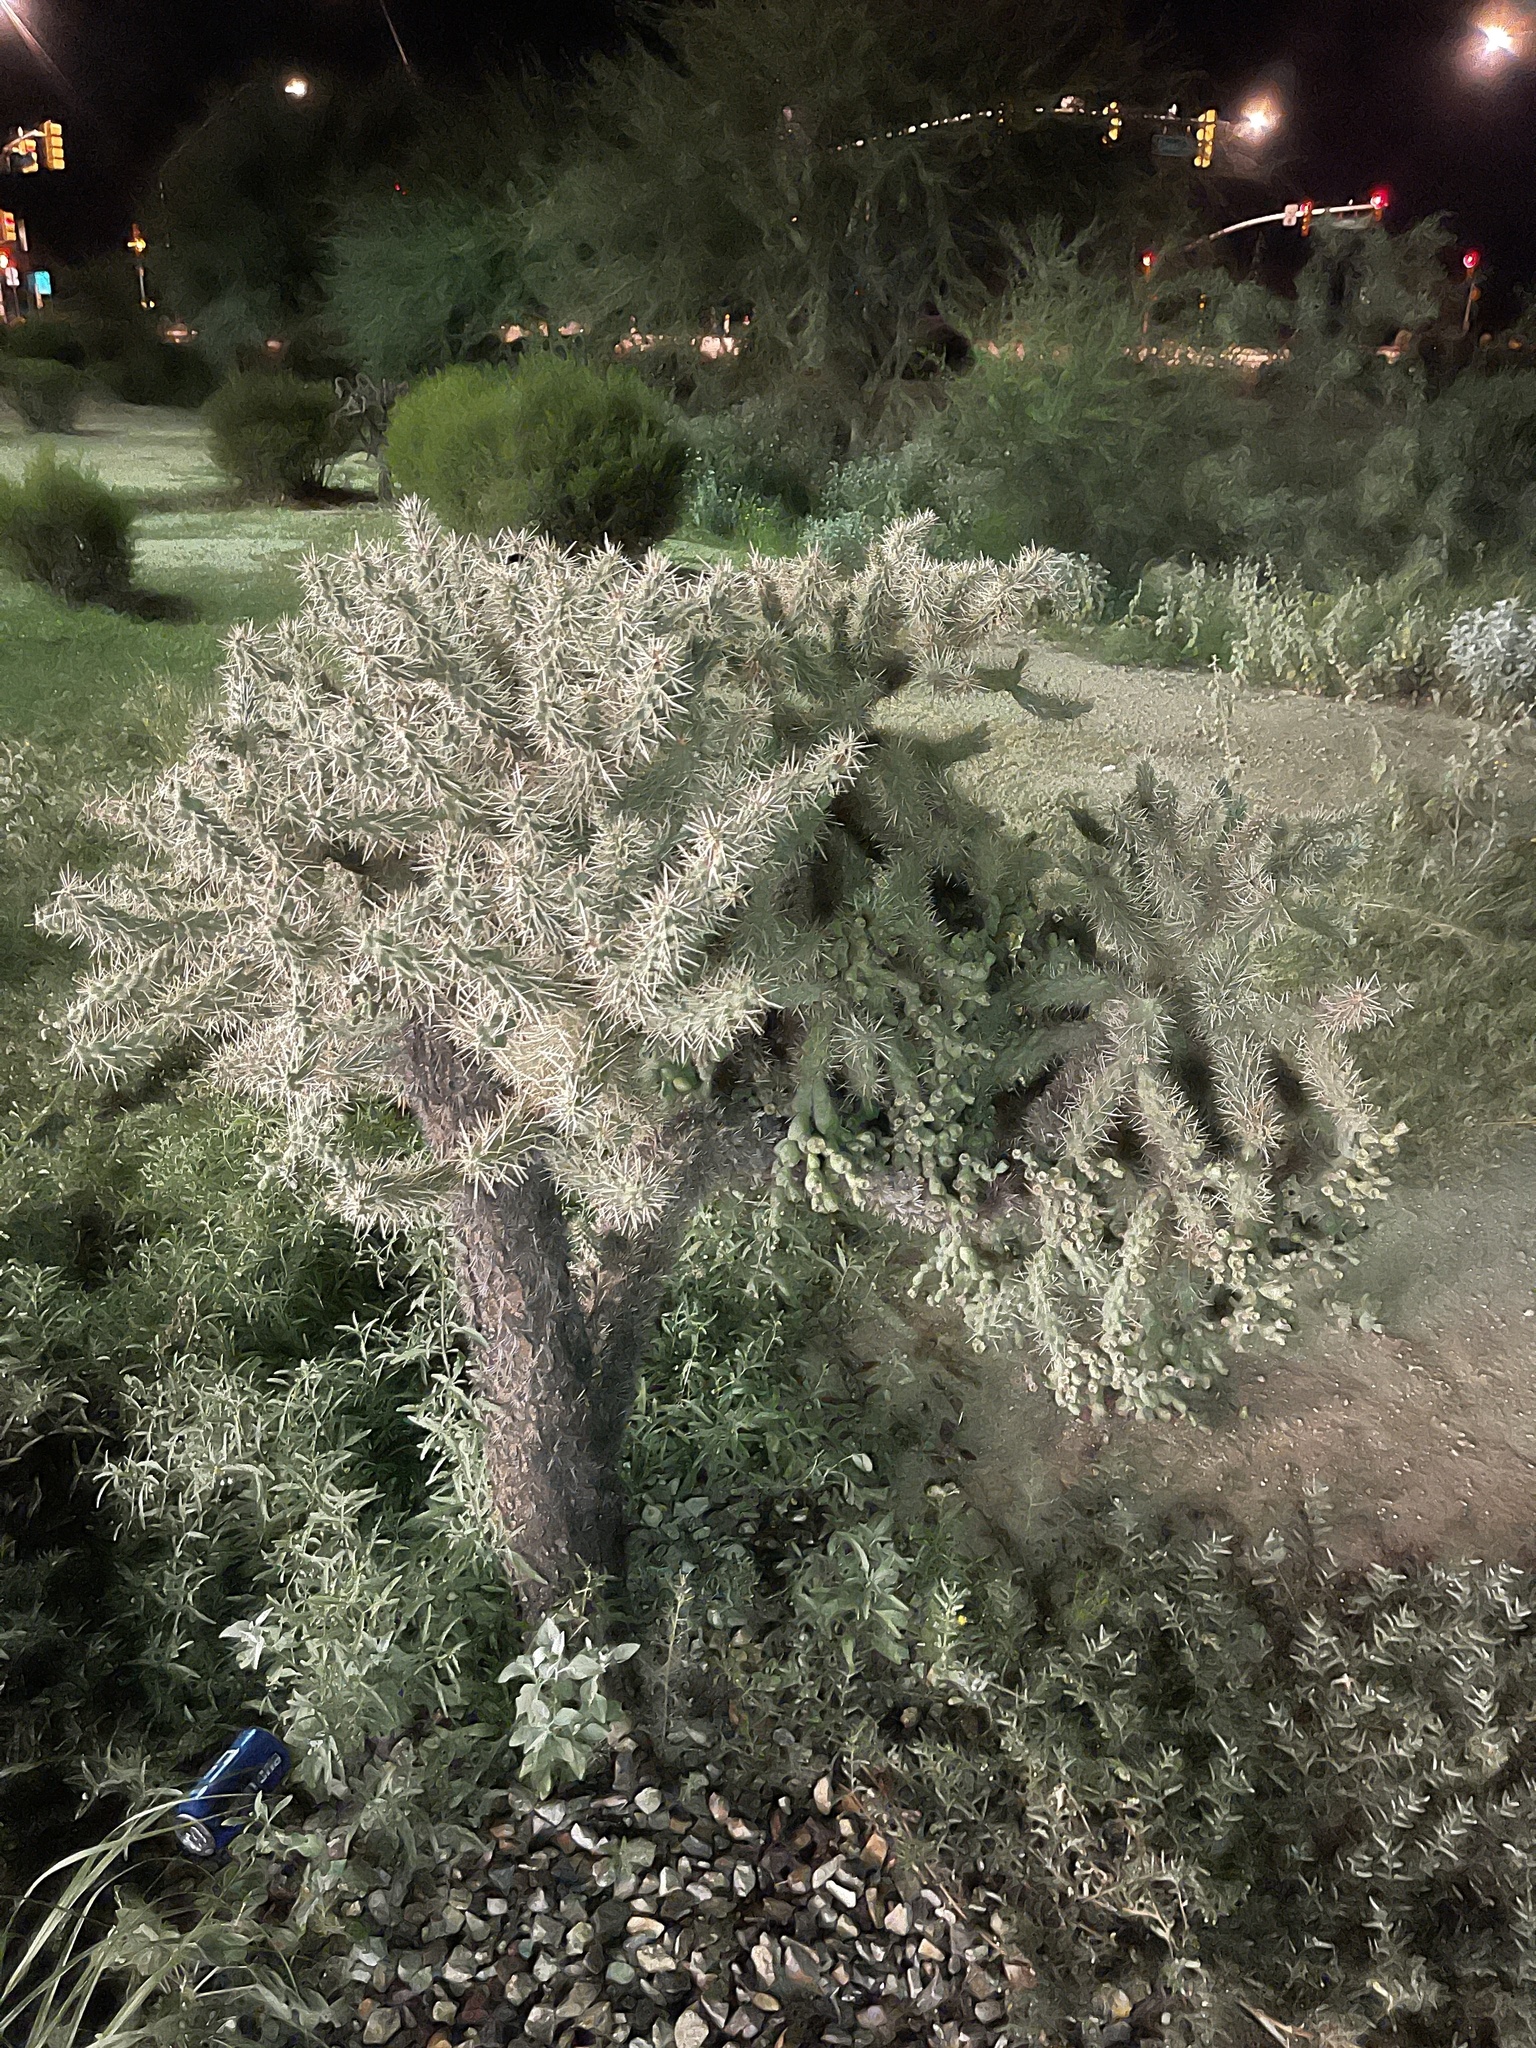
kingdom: Plantae
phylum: Tracheophyta
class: Magnoliopsida
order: Caryophyllales
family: Cactaceae
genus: Cylindropuntia
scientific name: Cylindropuntia fulgida
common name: Jumping cholla
